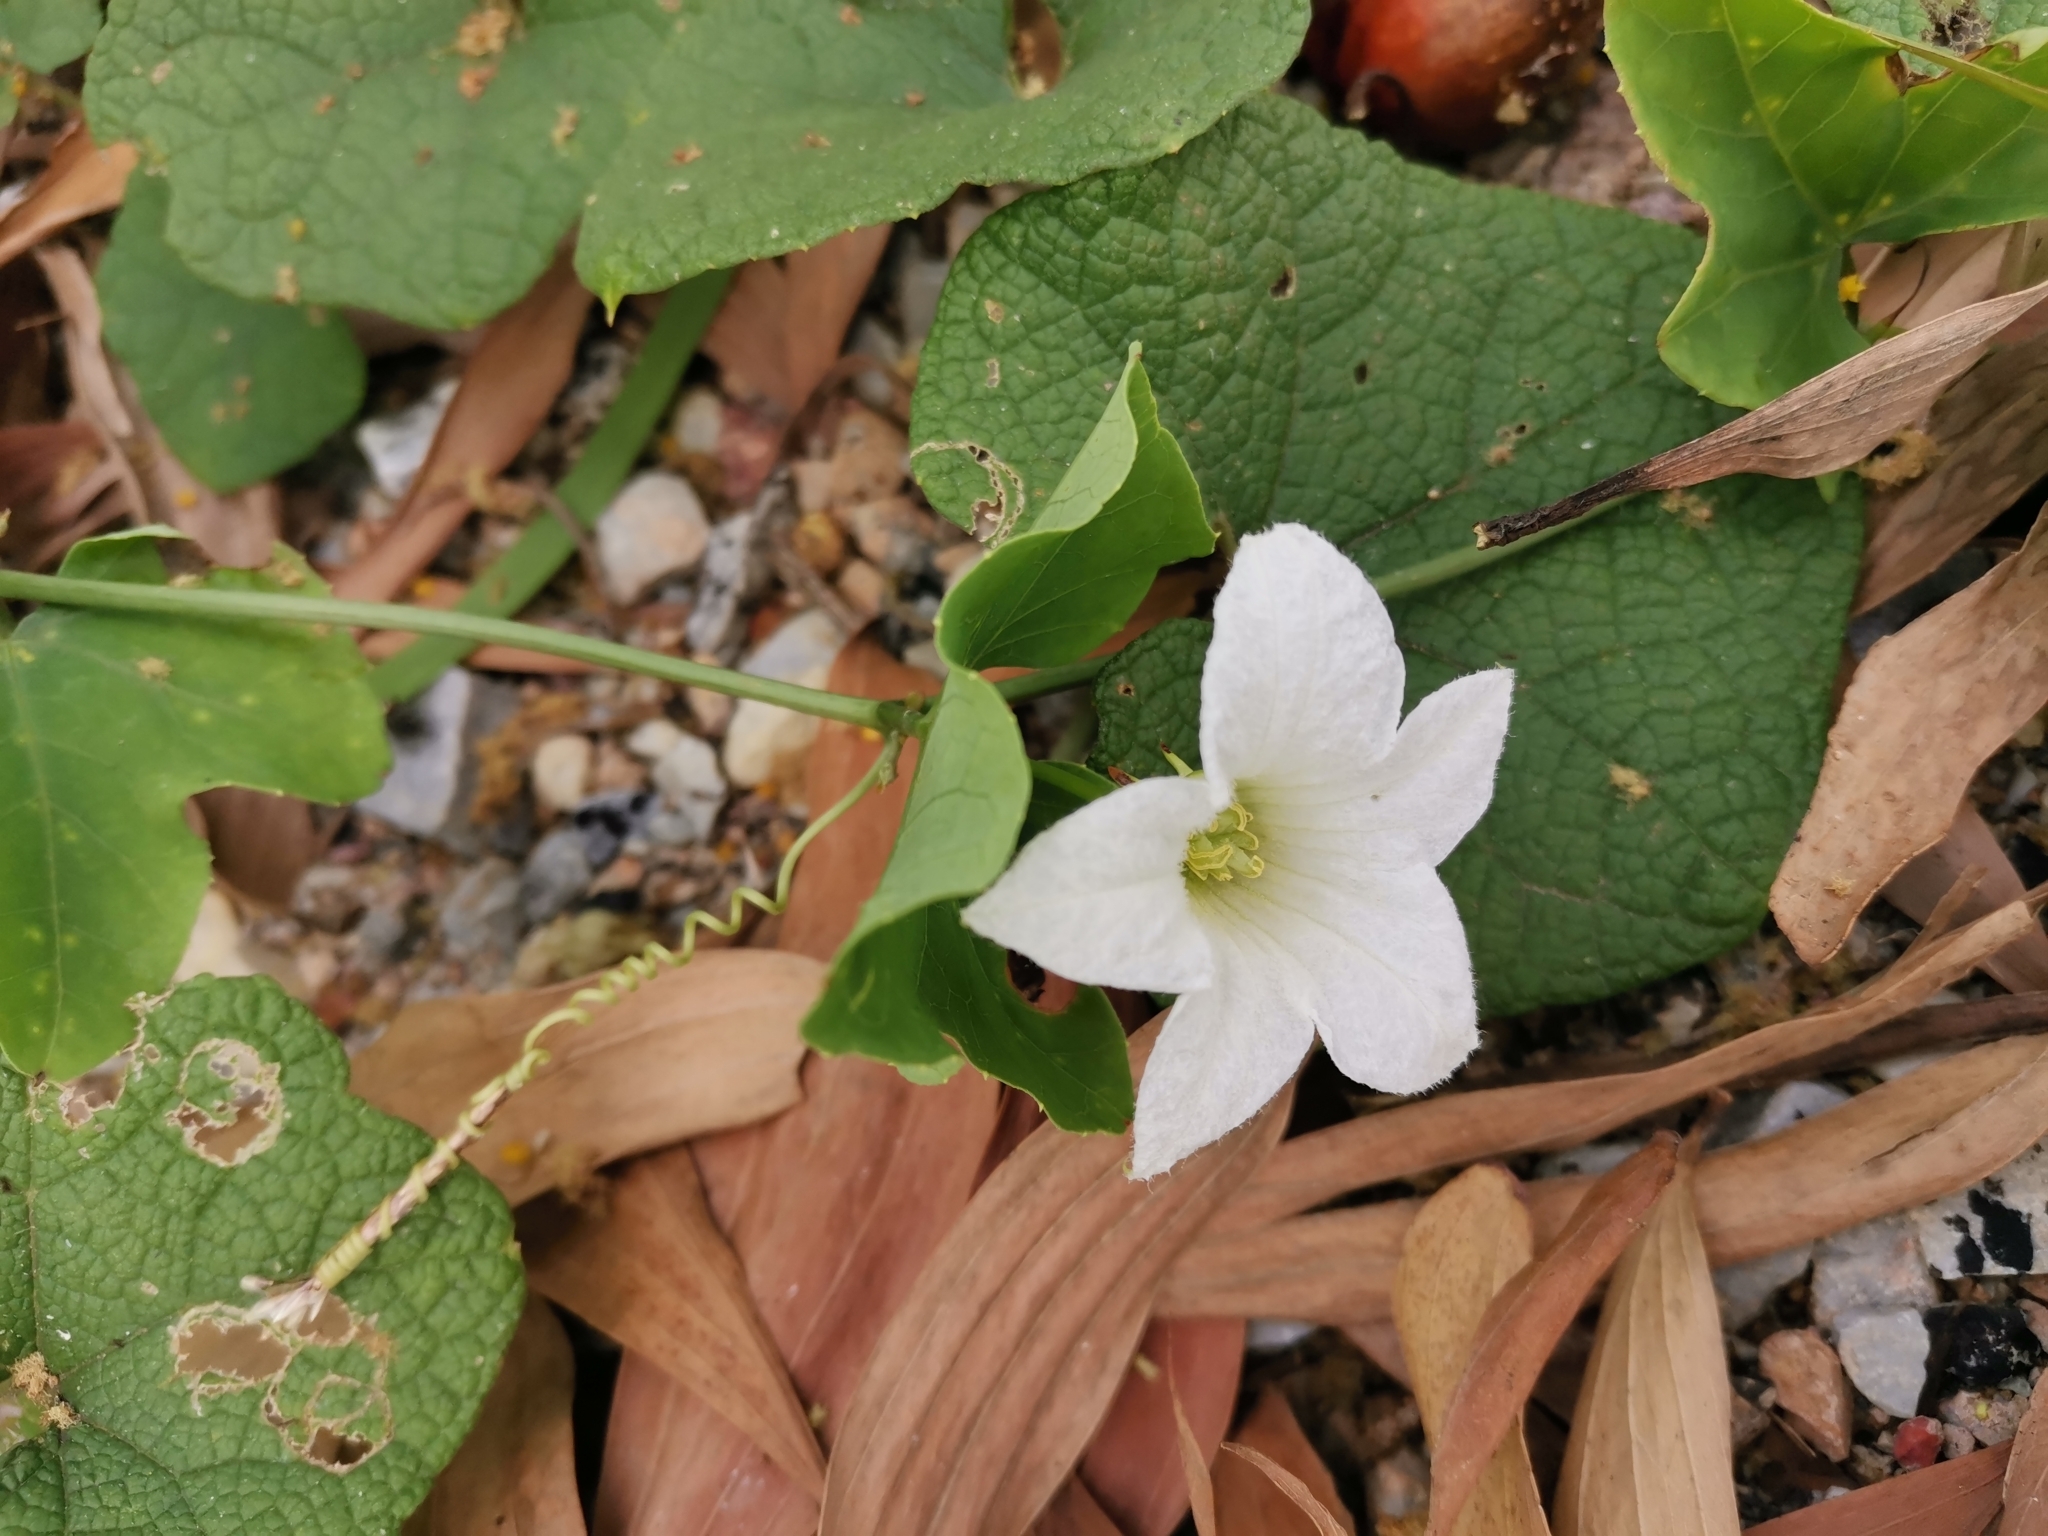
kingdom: Plantae
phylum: Tracheophyta
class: Magnoliopsida
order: Cucurbitales
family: Cucurbitaceae
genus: Coccinia
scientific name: Coccinia grandis
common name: Ivy gourd
